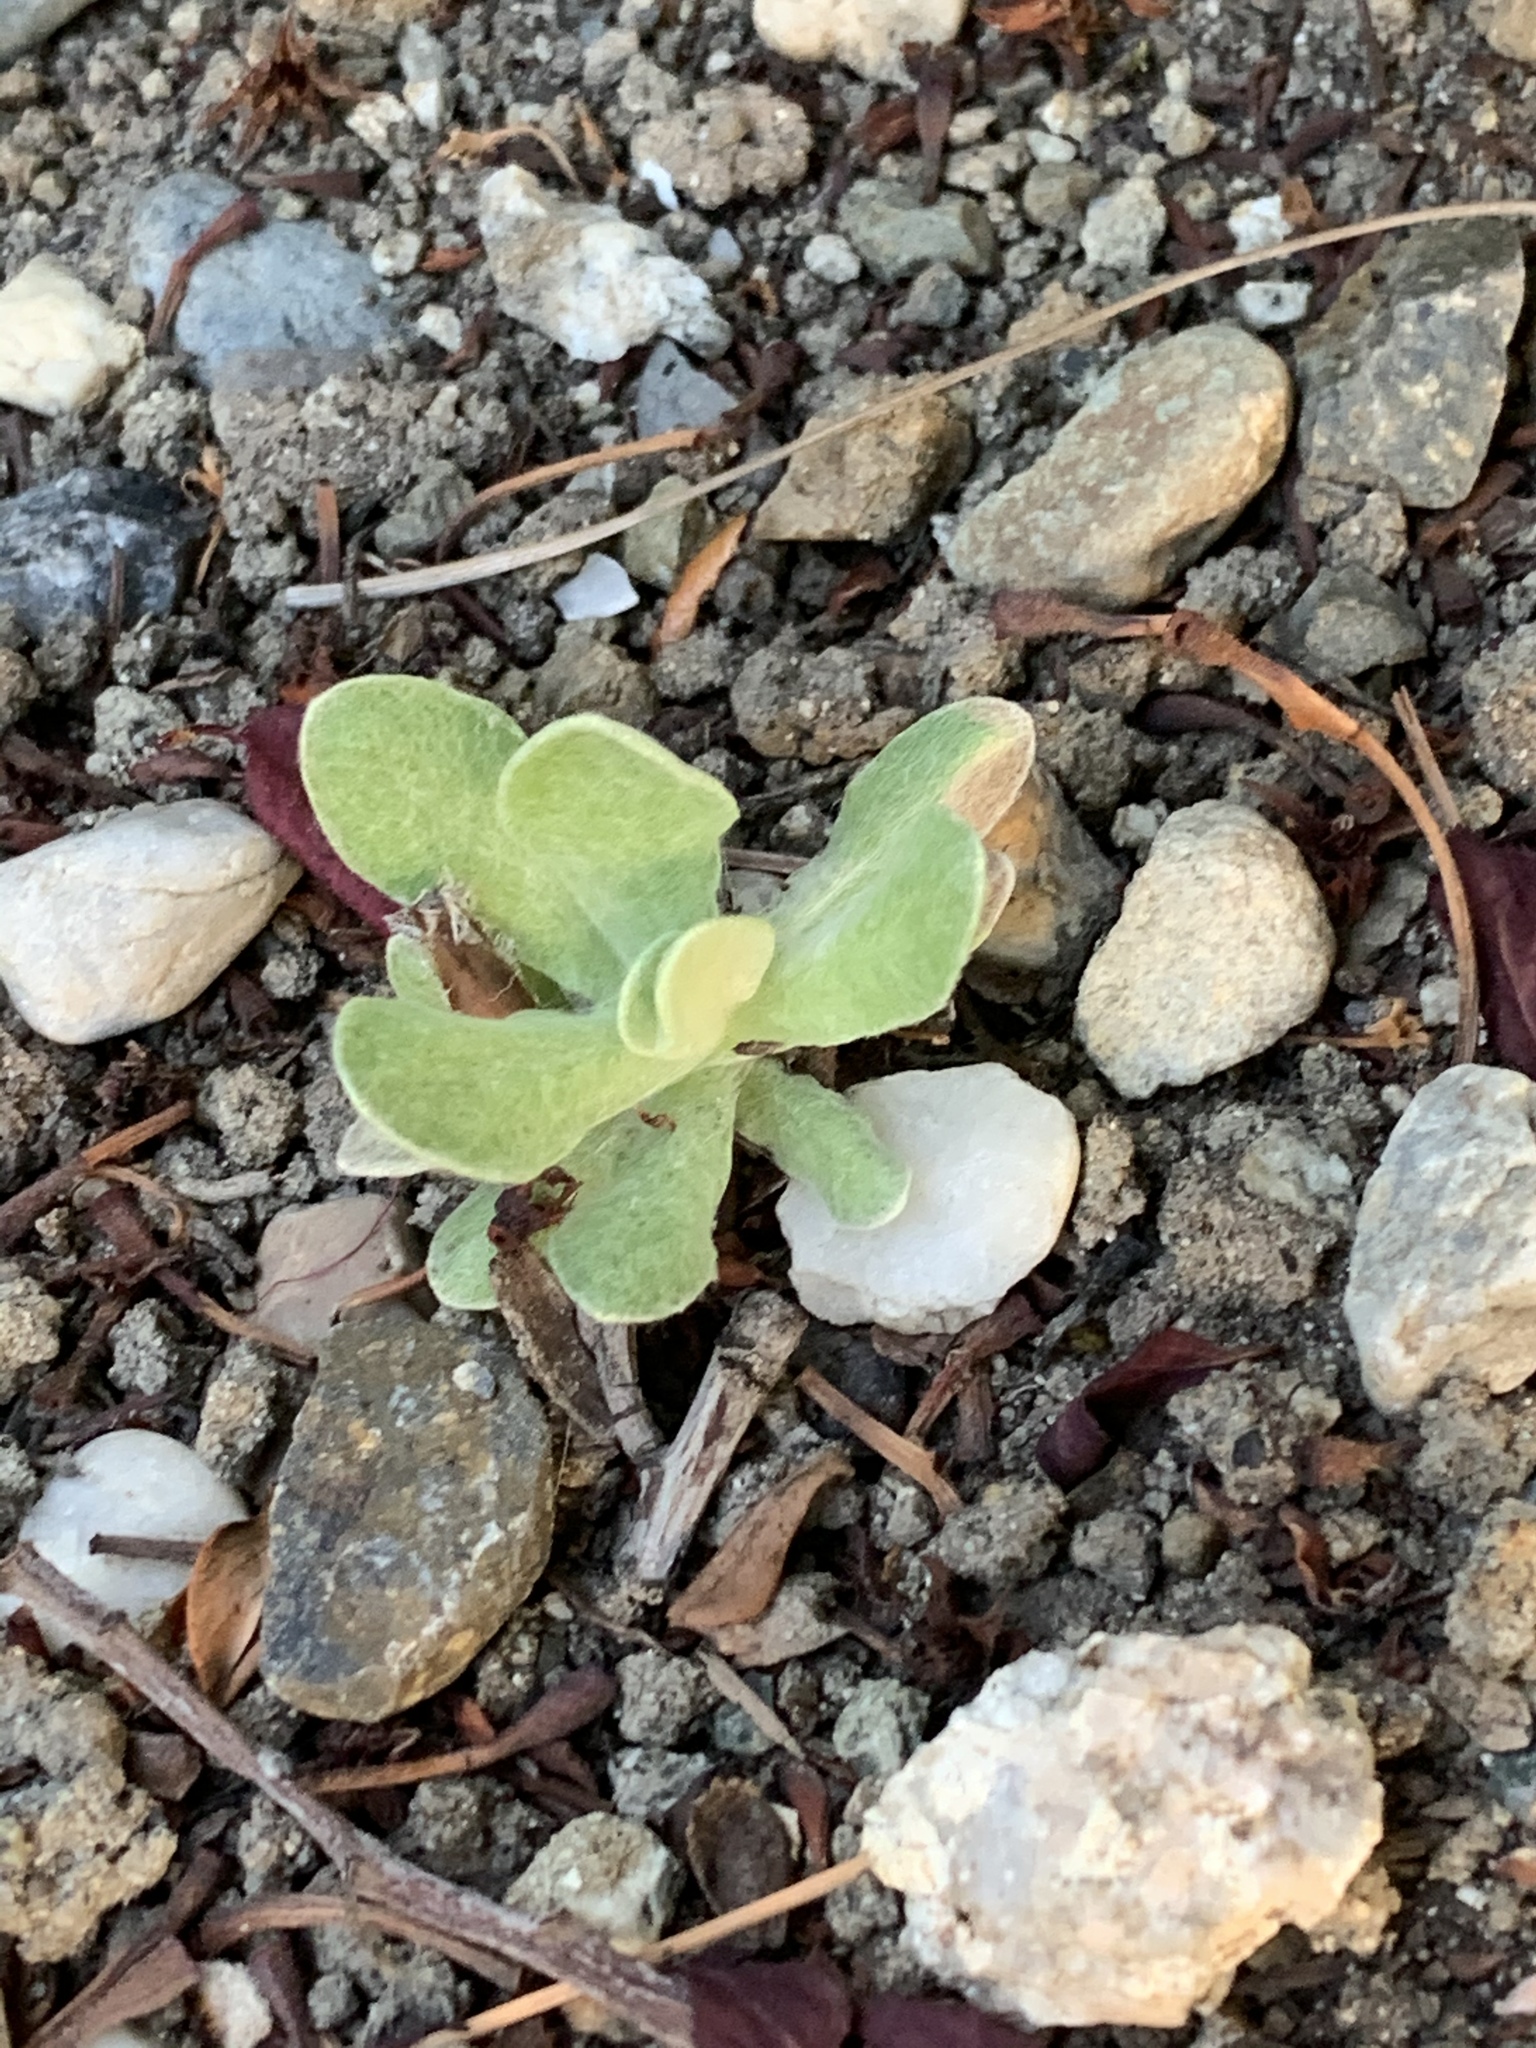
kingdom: Plantae
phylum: Tracheophyta
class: Magnoliopsida
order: Asterales
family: Asteraceae
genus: Helichrysum
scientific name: Helichrysum luteoalbum
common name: Daisy
